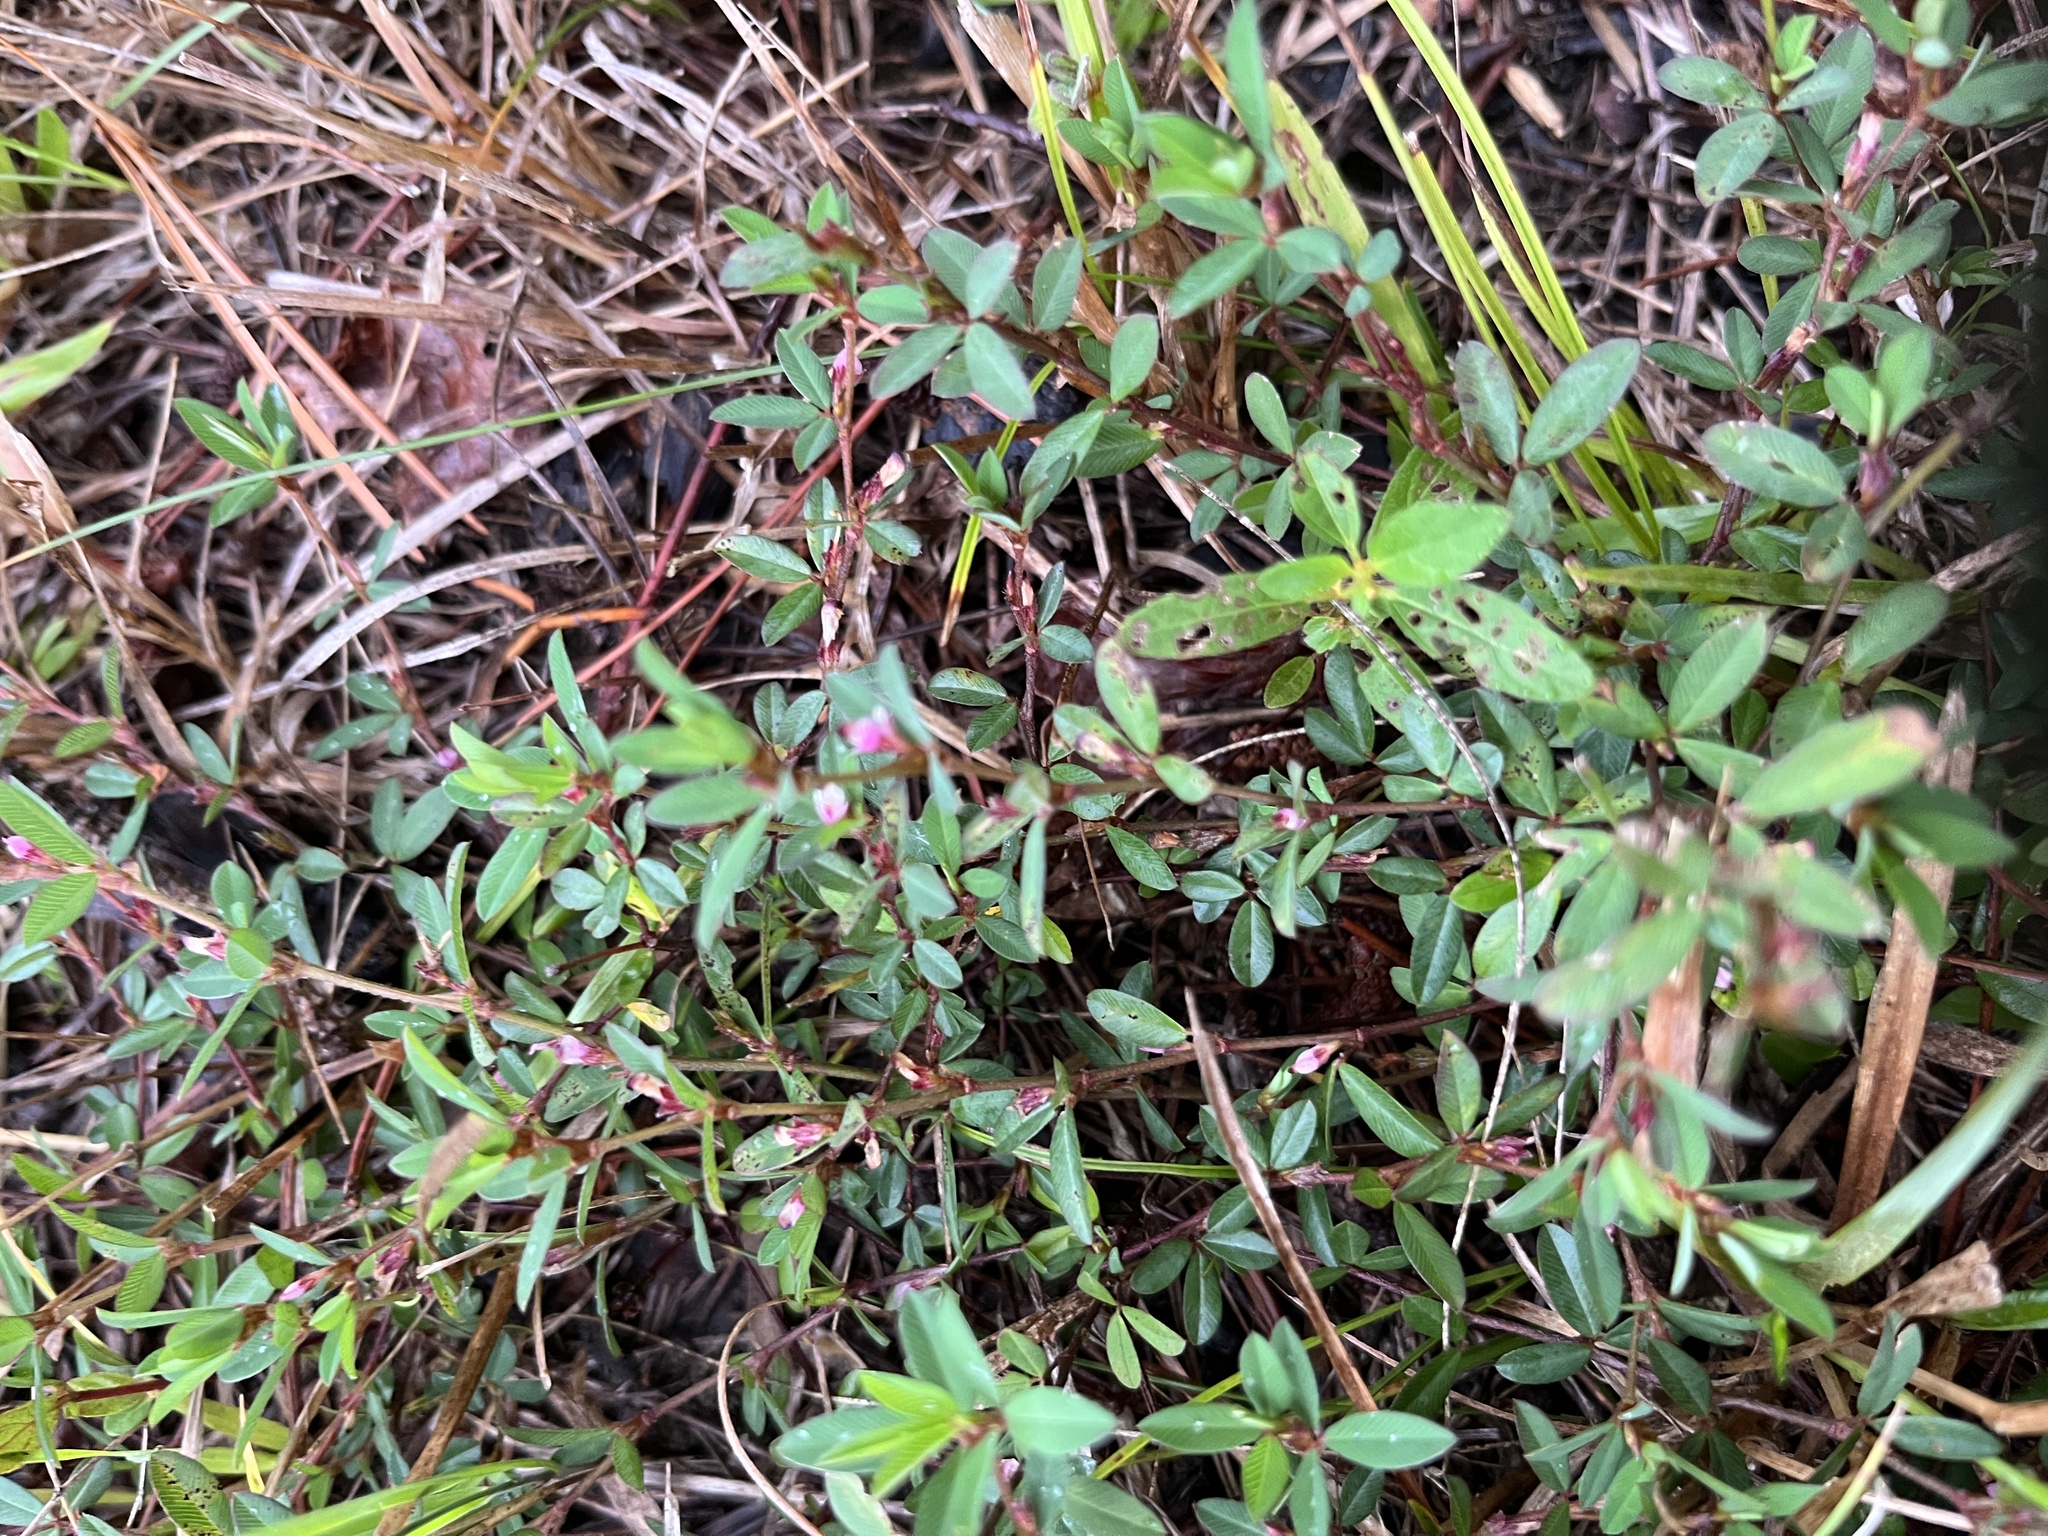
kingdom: Plantae
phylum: Tracheophyta
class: Magnoliopsida
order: Fabales
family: Fabaceae
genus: Kummerowia
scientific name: Kummerowia striata
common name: Japanese clover
